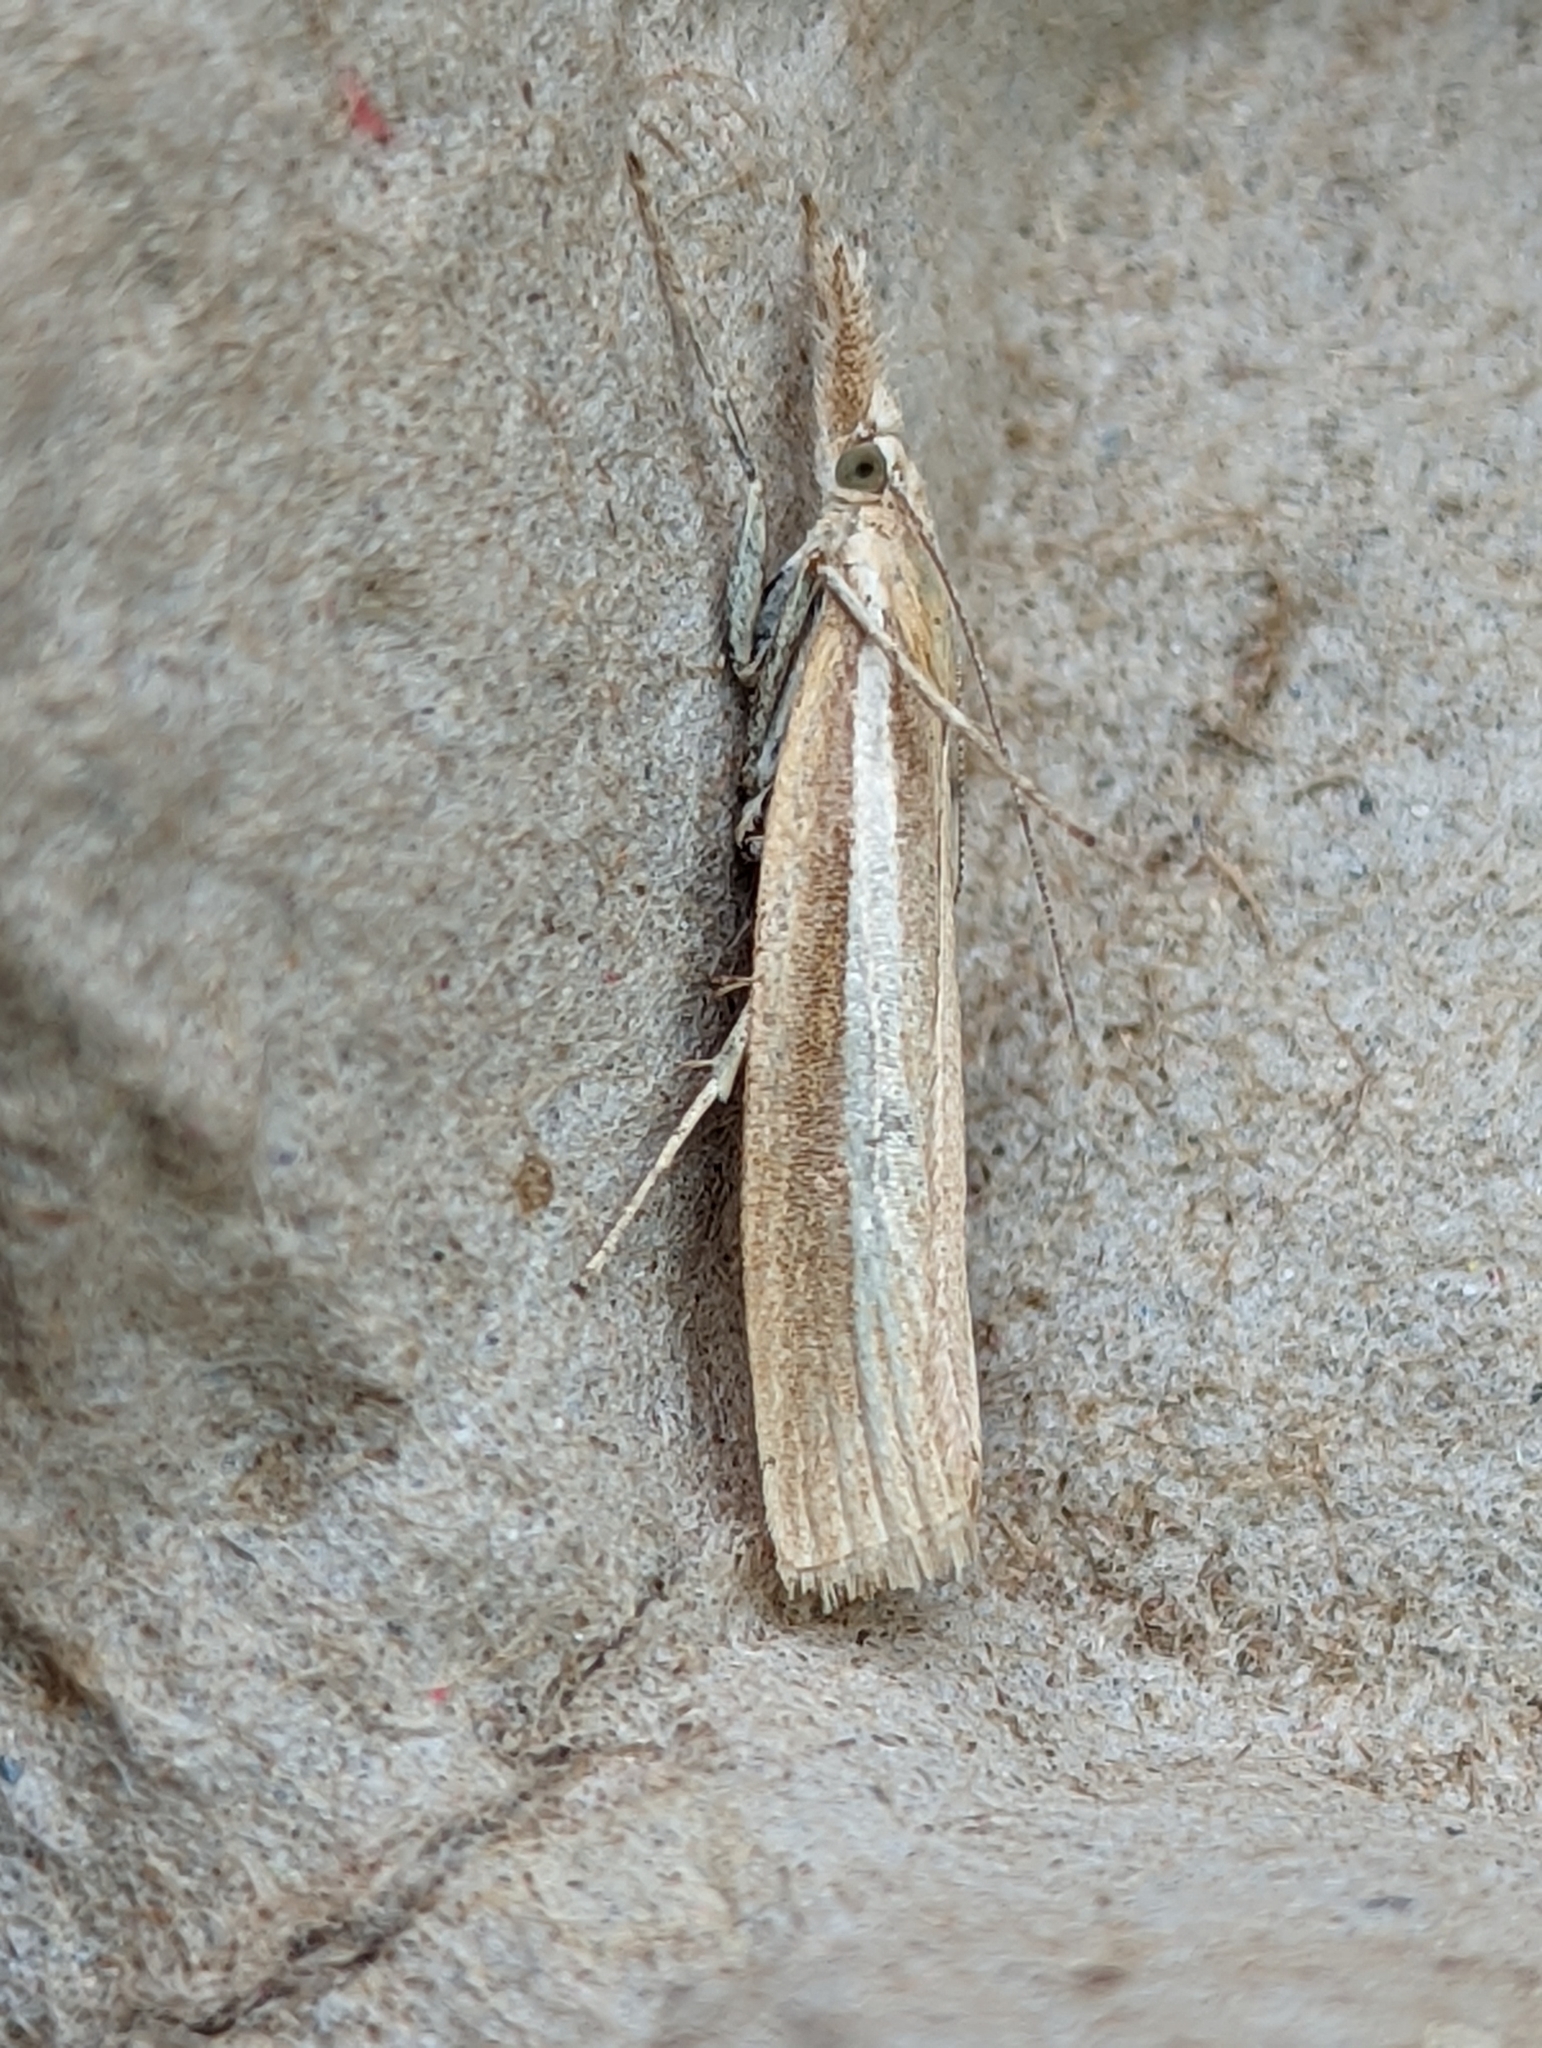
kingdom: Animalia
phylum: Arthropoda
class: Insecta
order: Lepidoptera
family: Crambidae
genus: Agriphila
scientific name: Agriphila selasella
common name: Pale-streak grass-veneer
